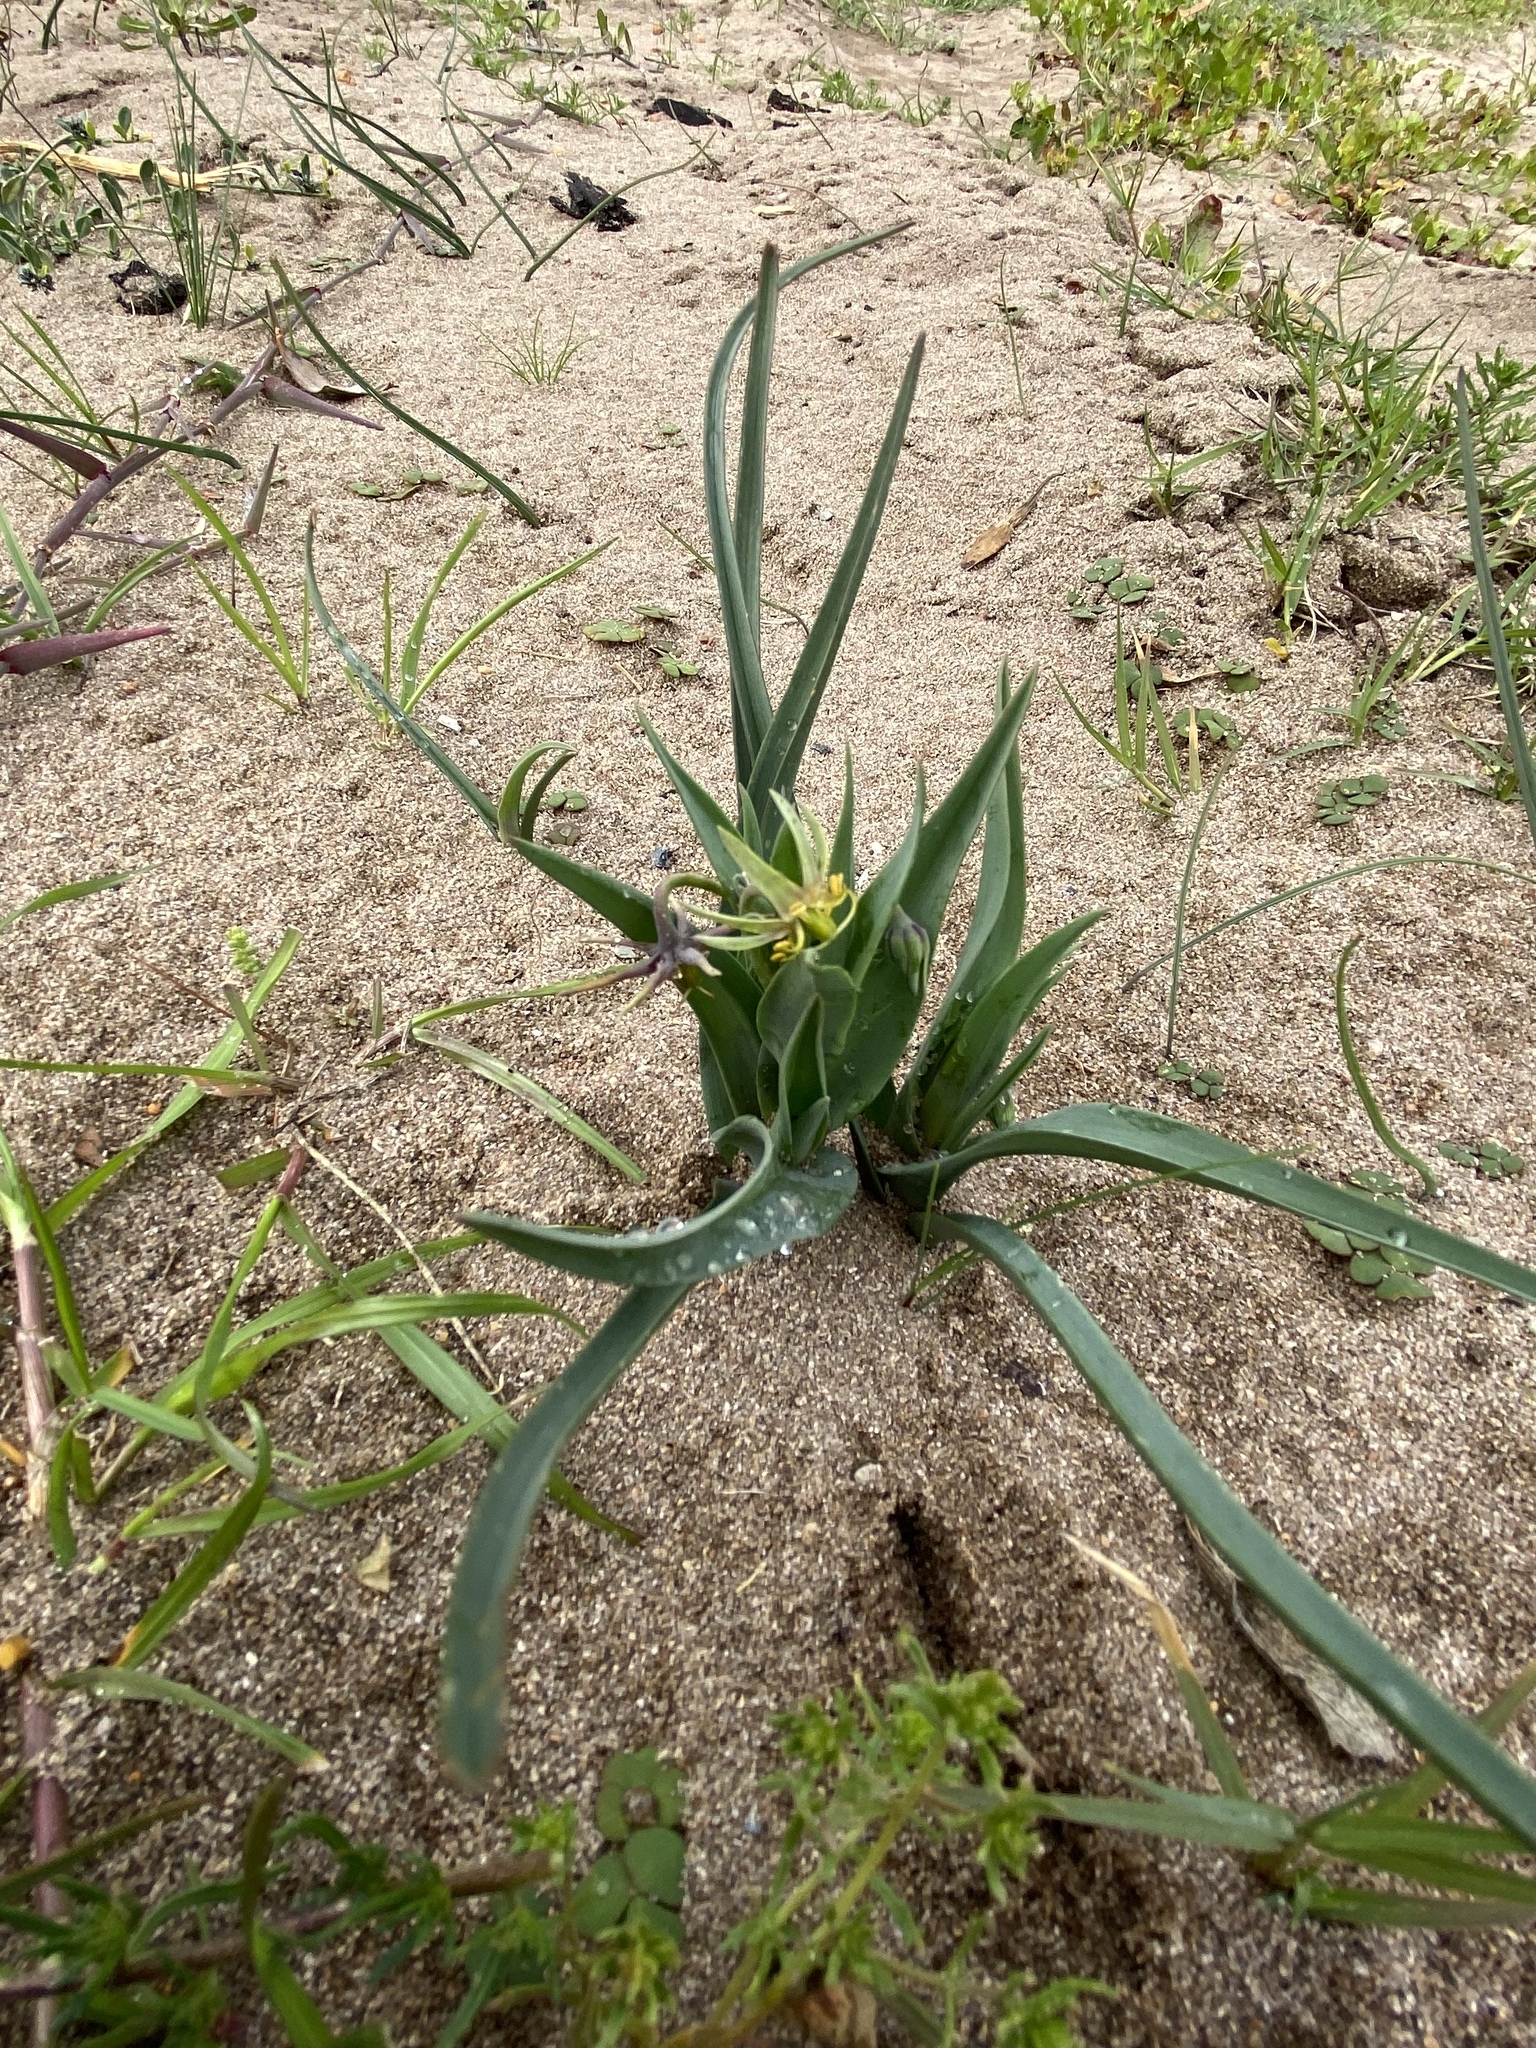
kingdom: Plantae
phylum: Tracheophyta
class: Liliopsida
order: Liliales
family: Colchicaceae
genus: Ornithoglossum
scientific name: Ornithoglossum viride
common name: Cape poison-onion
